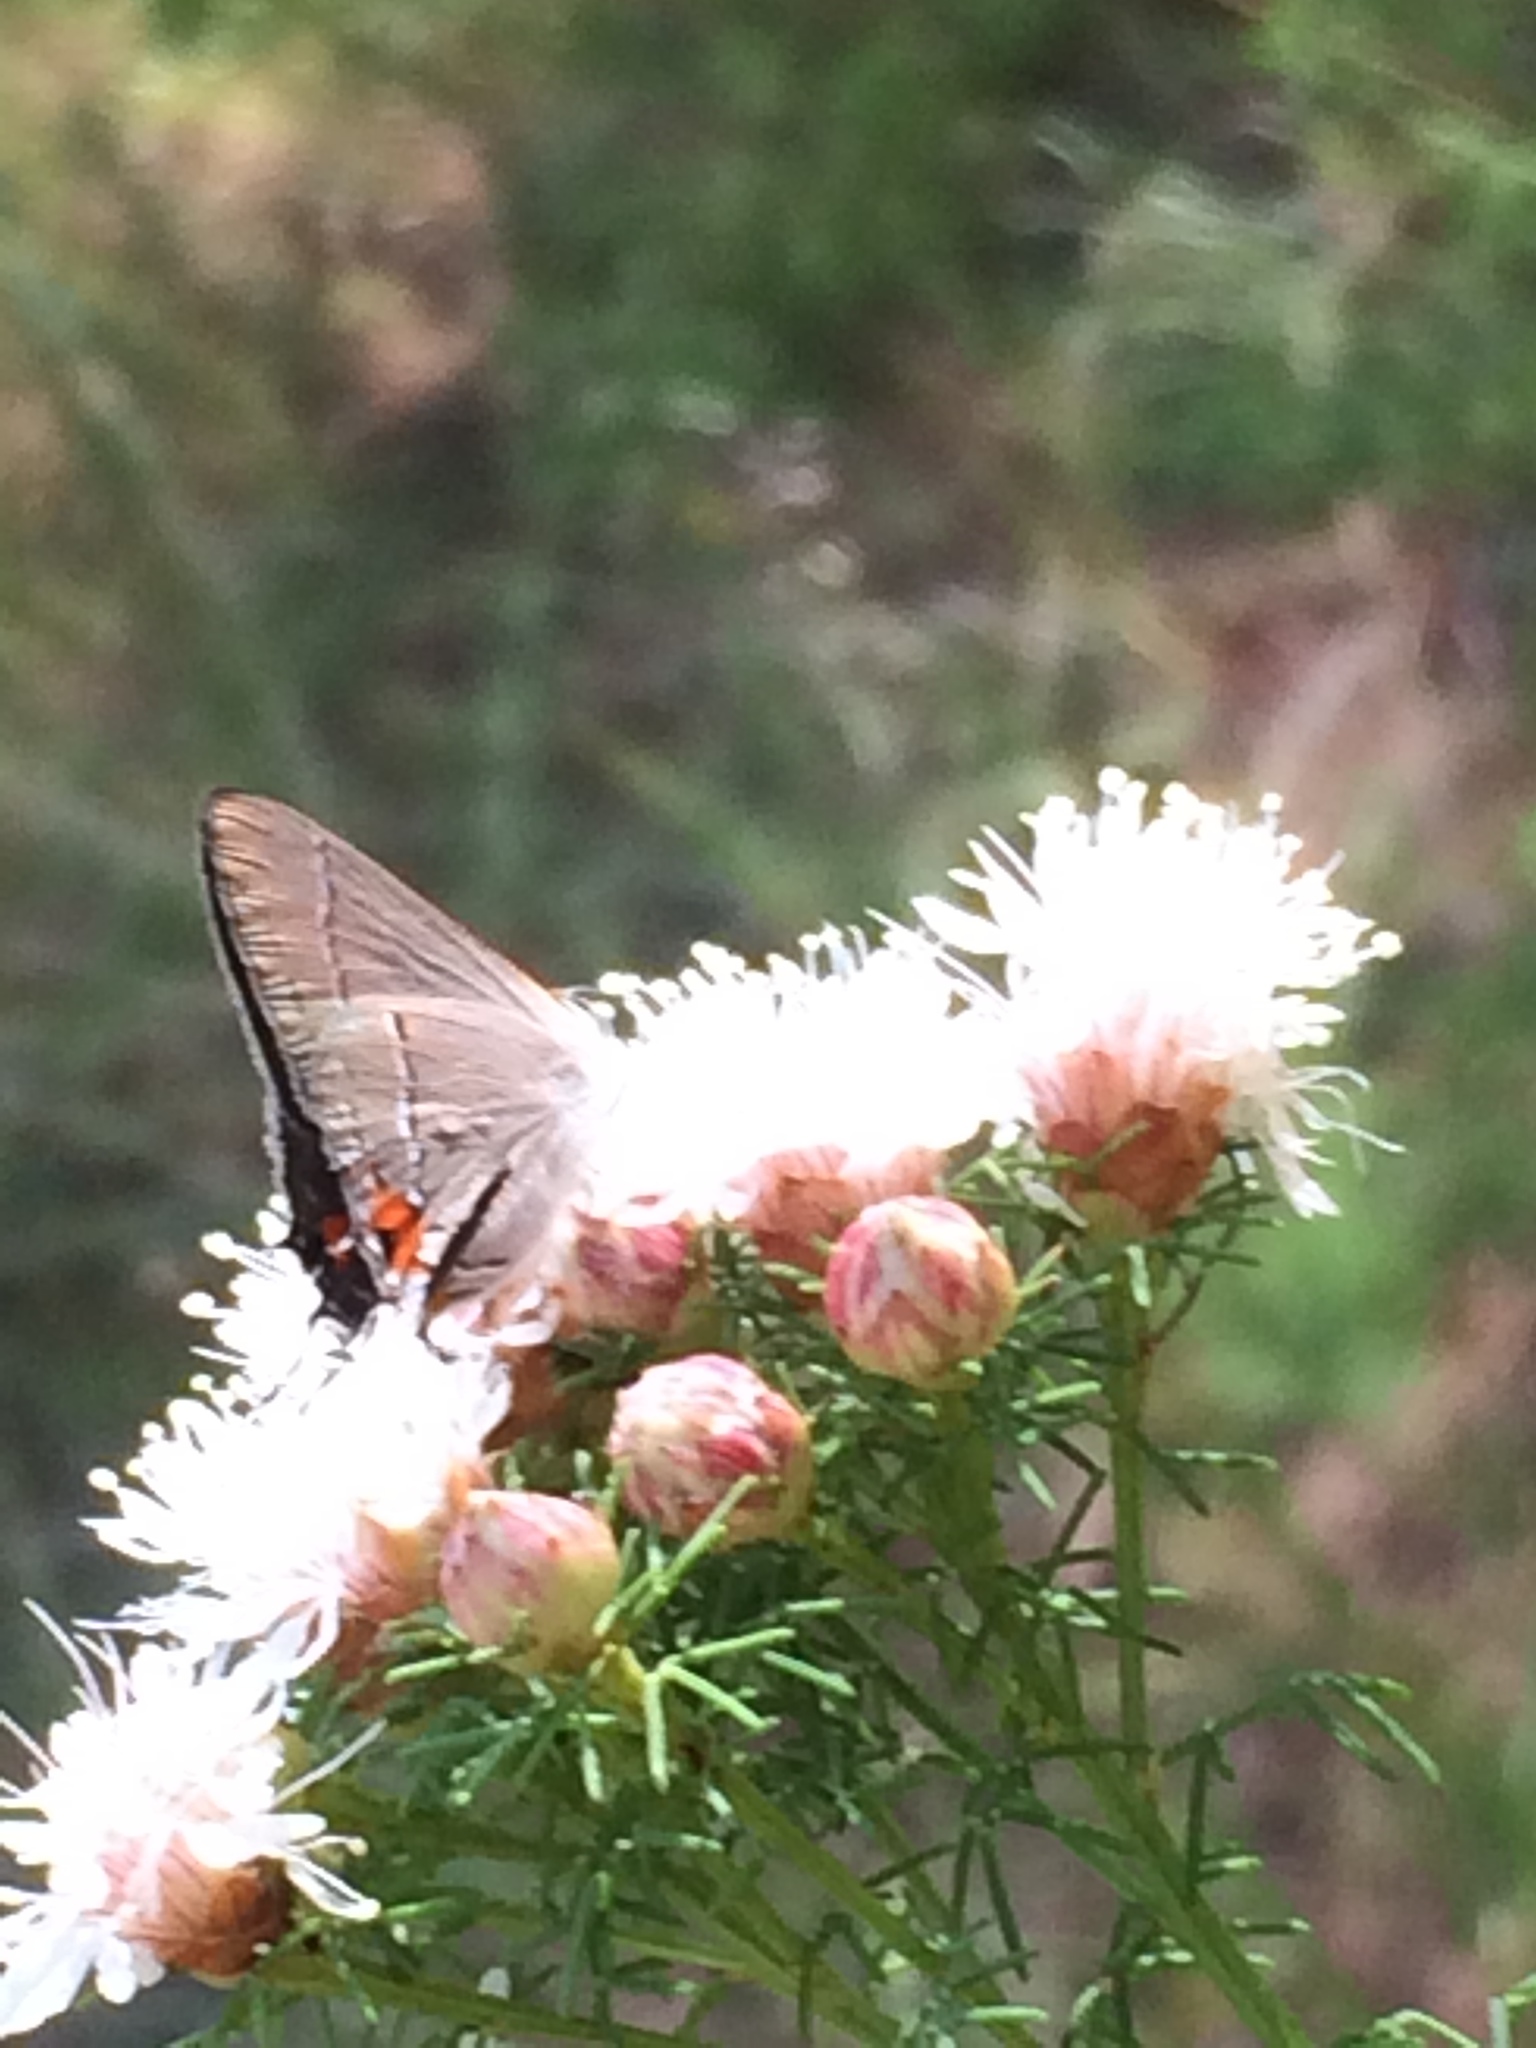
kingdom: Animalia
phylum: Arthropoda
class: Insecta
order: Lepidoptera
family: Lycaenidae
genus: Strymon
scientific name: Strymon melinus
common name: Gray hairstreak
